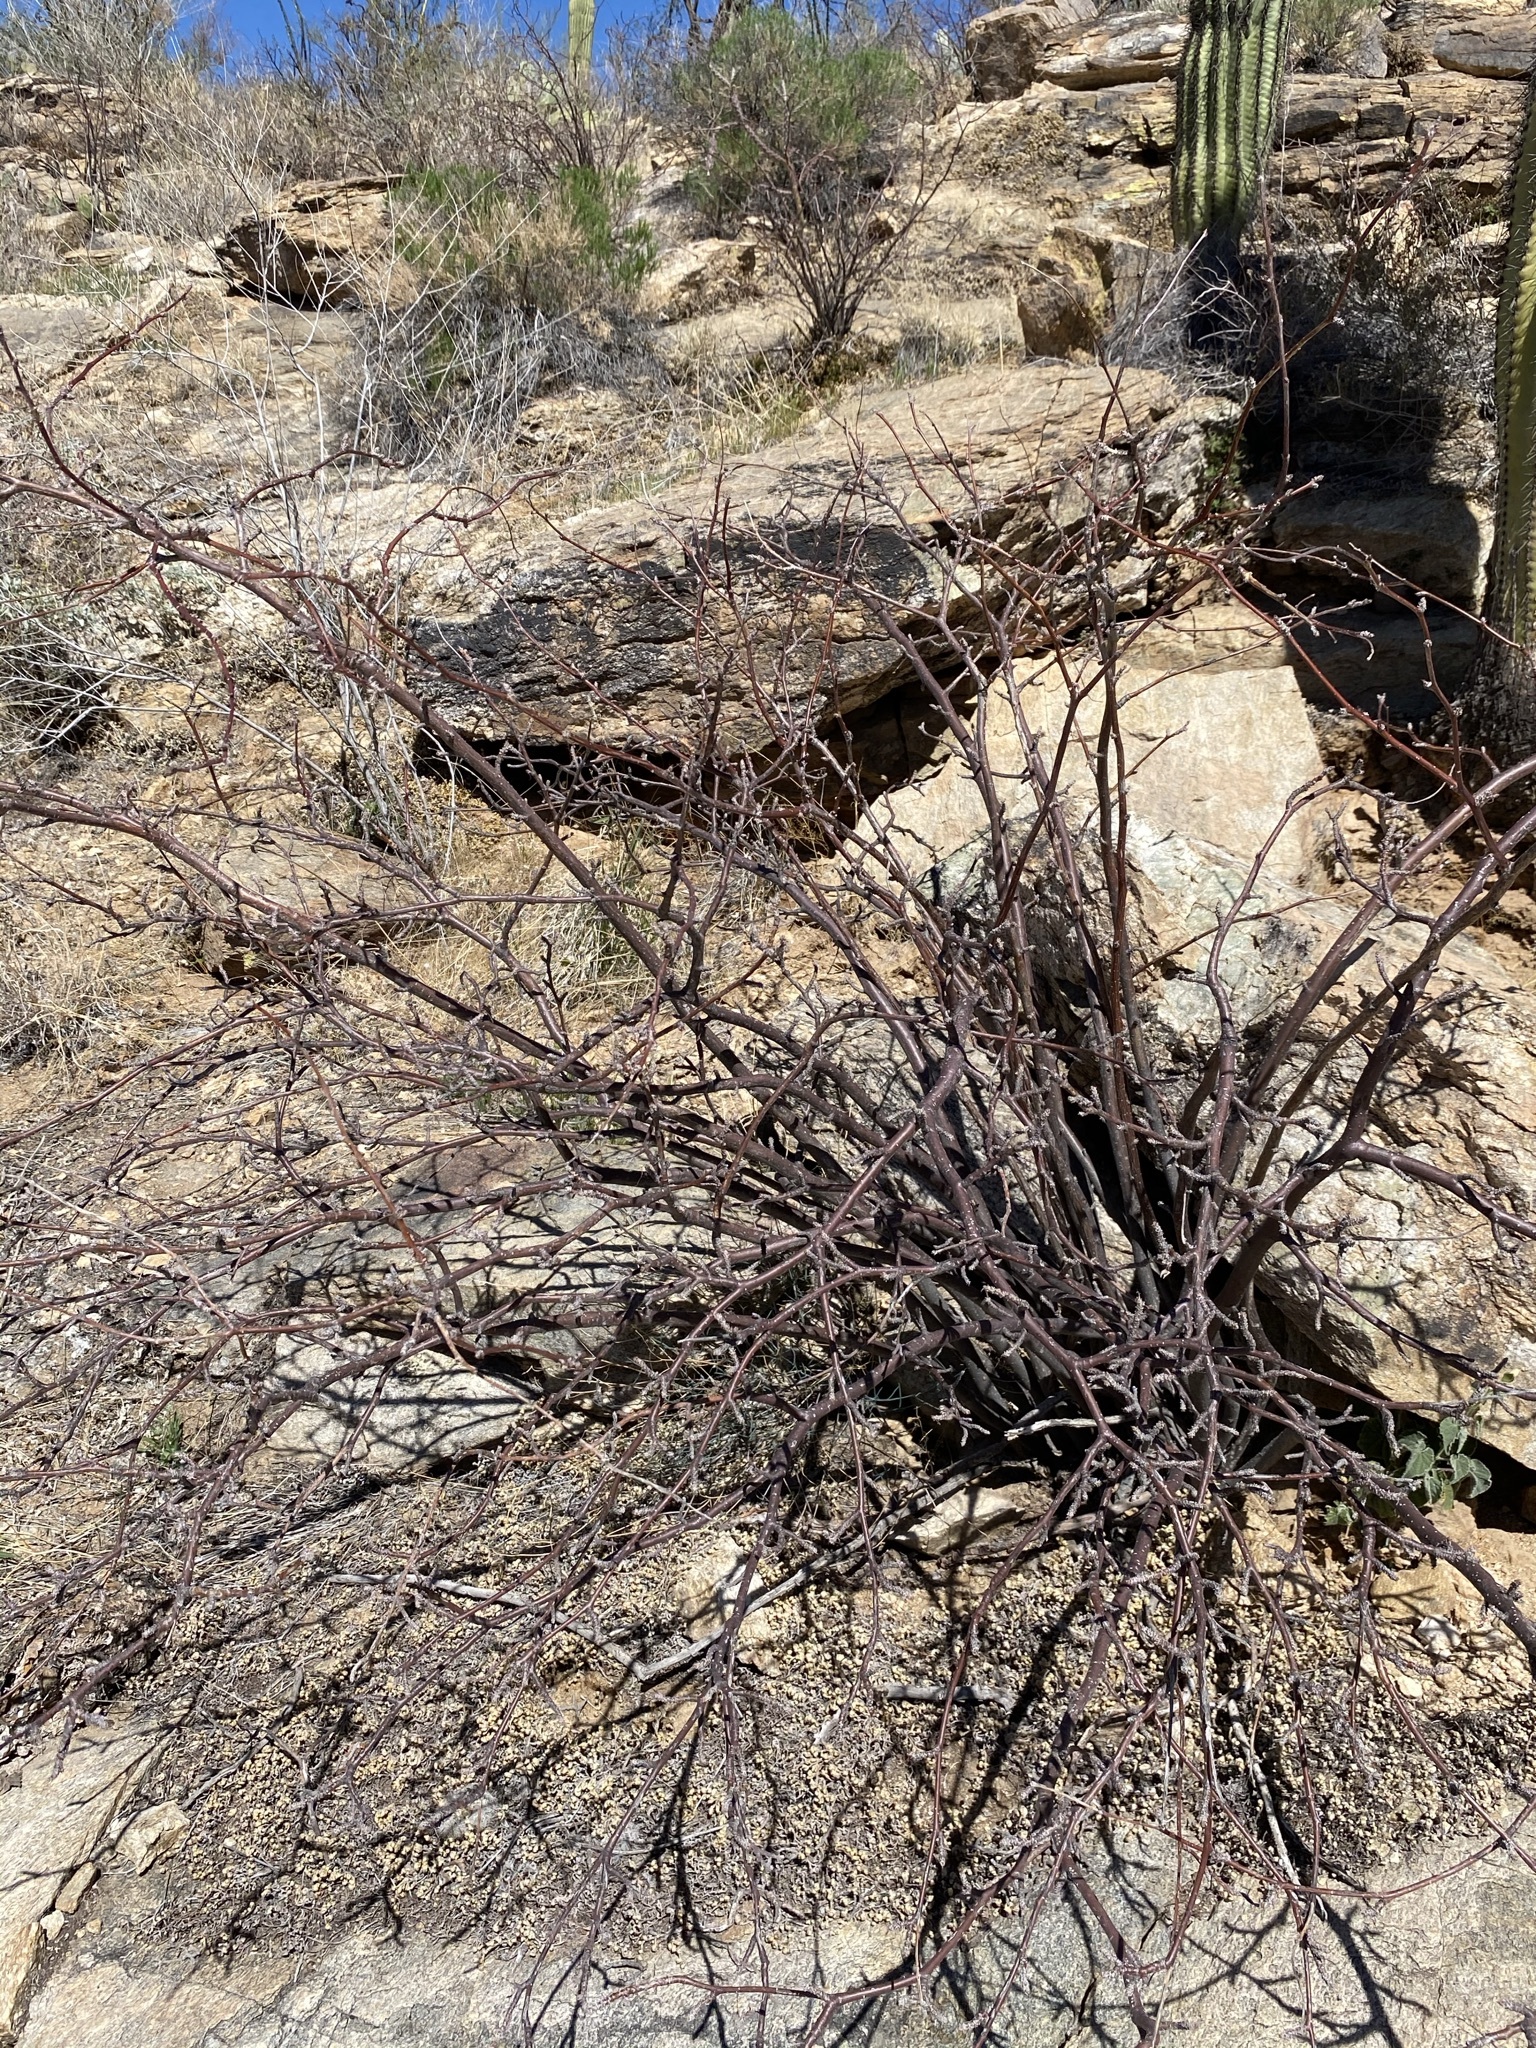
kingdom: Plantae
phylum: Tracheophyta
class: Magnoliopsida
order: Malpighiales
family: Euphorbiaceae
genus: Jatropha
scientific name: Jatropha cardiophylla
